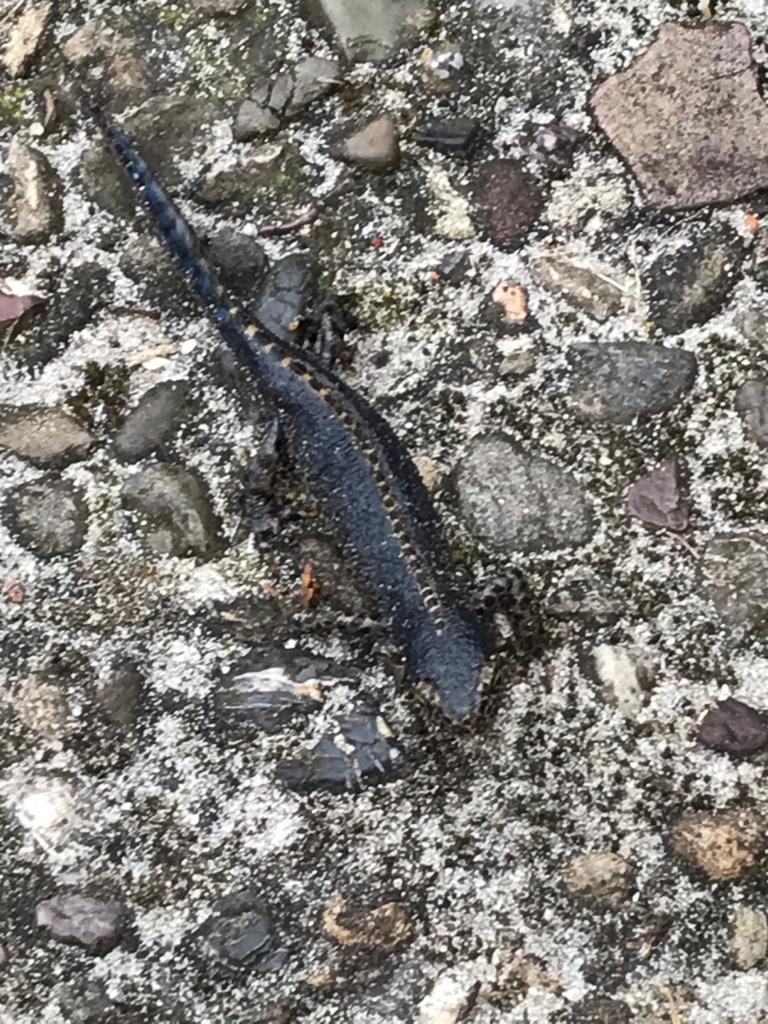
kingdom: Animalia
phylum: Chordata
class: Amphibia
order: Caudata
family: Salamandridae
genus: Ichthyosaura
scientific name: Ichthyosaura alpestris
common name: Alpine newt
